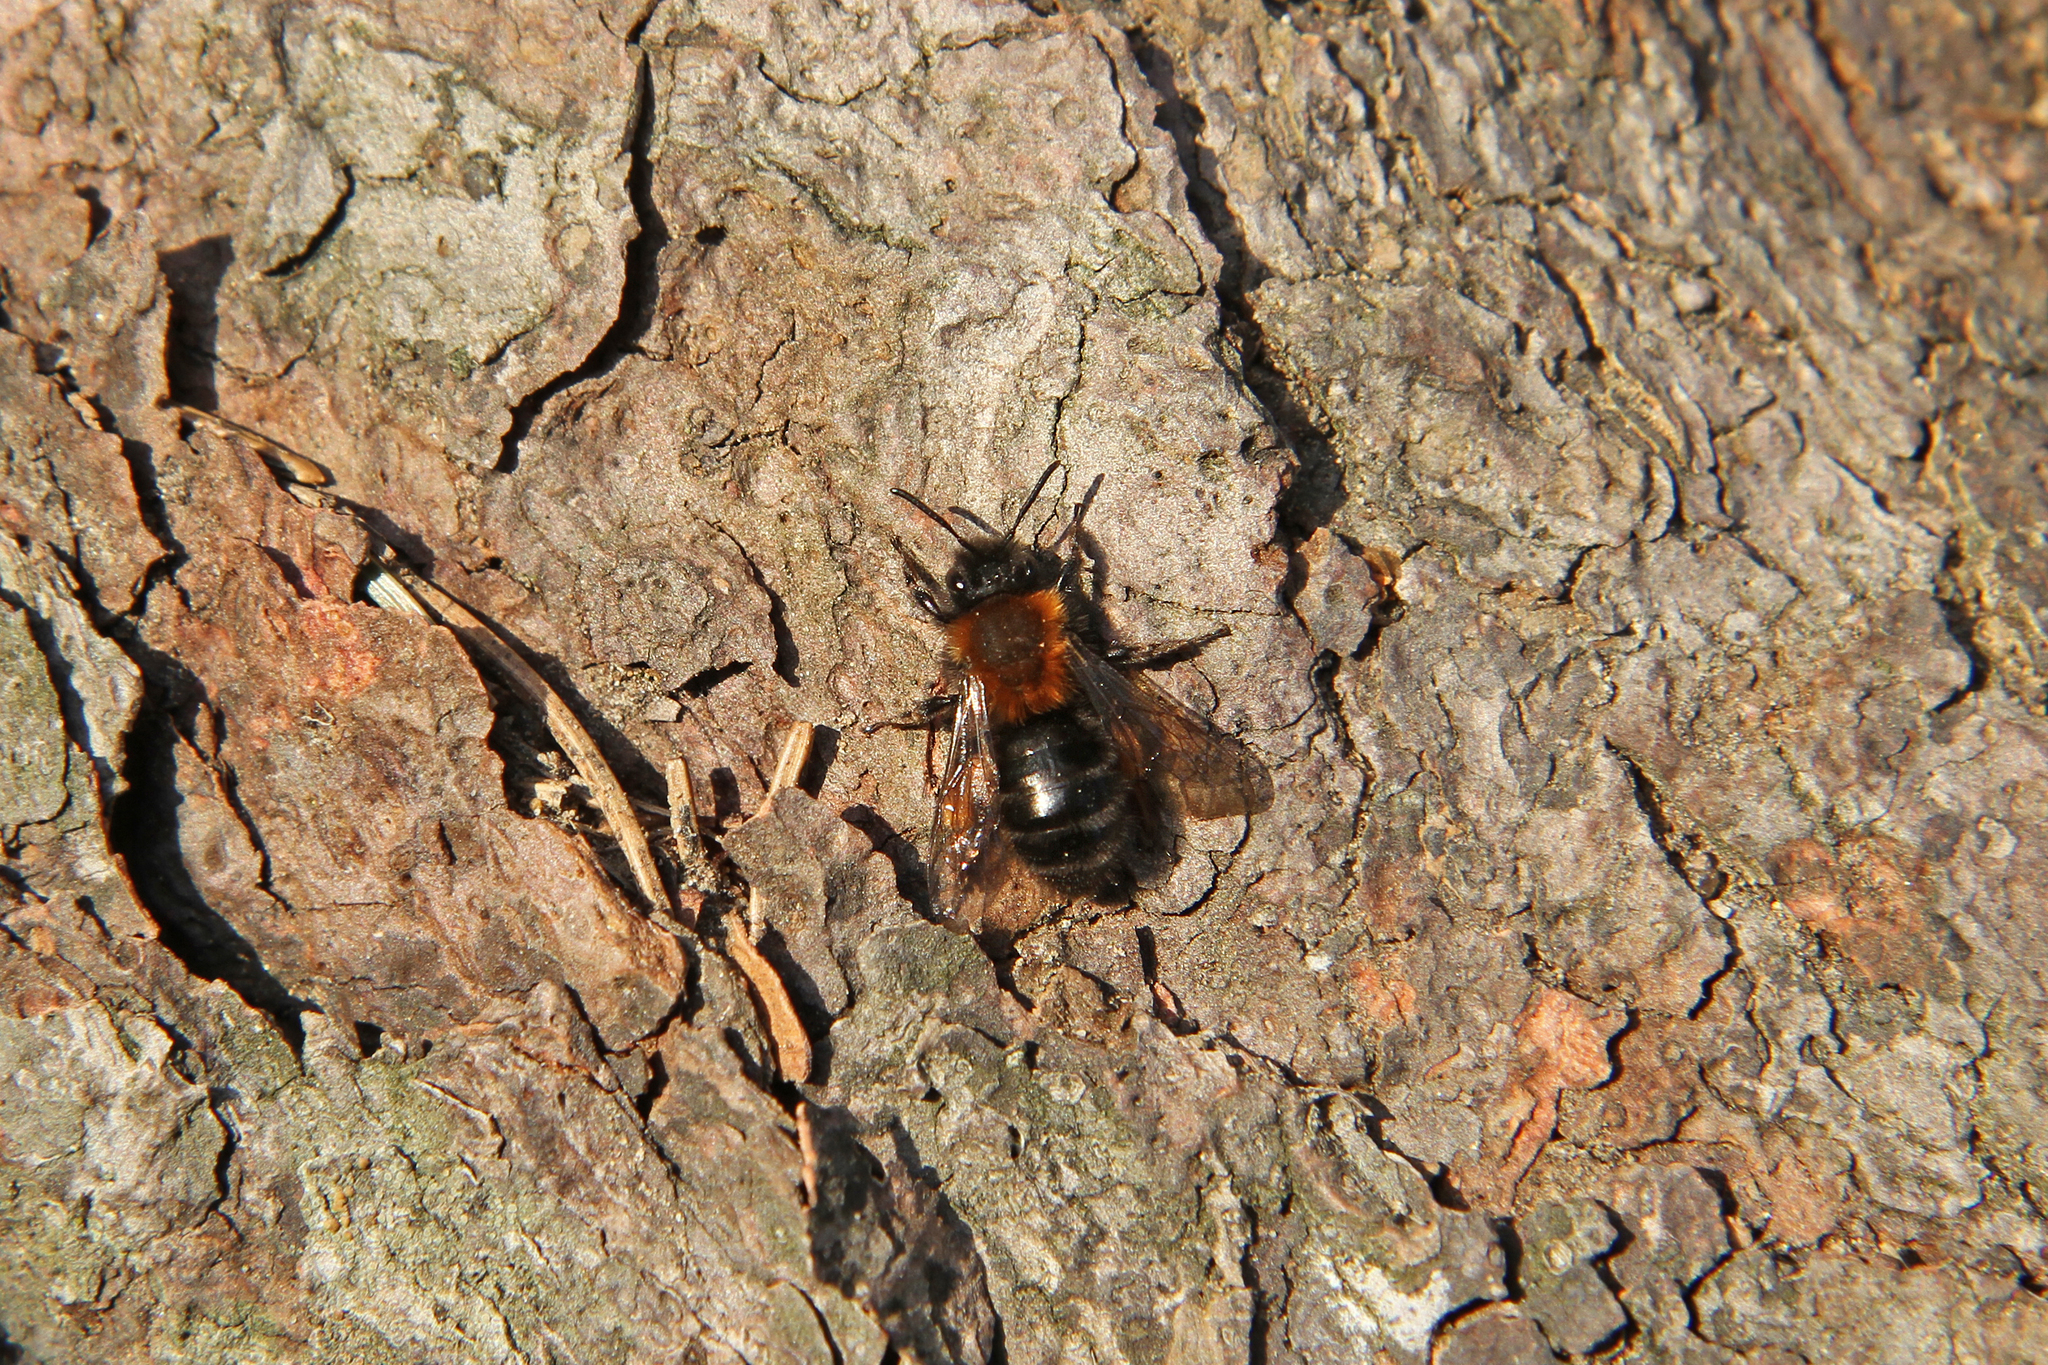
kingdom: Animalia
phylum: Arthropoda
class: Insecta
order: Hymenoptera
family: Andrenidae
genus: Andrena
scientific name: Andrena clarkella
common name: Clarke's mining bee
